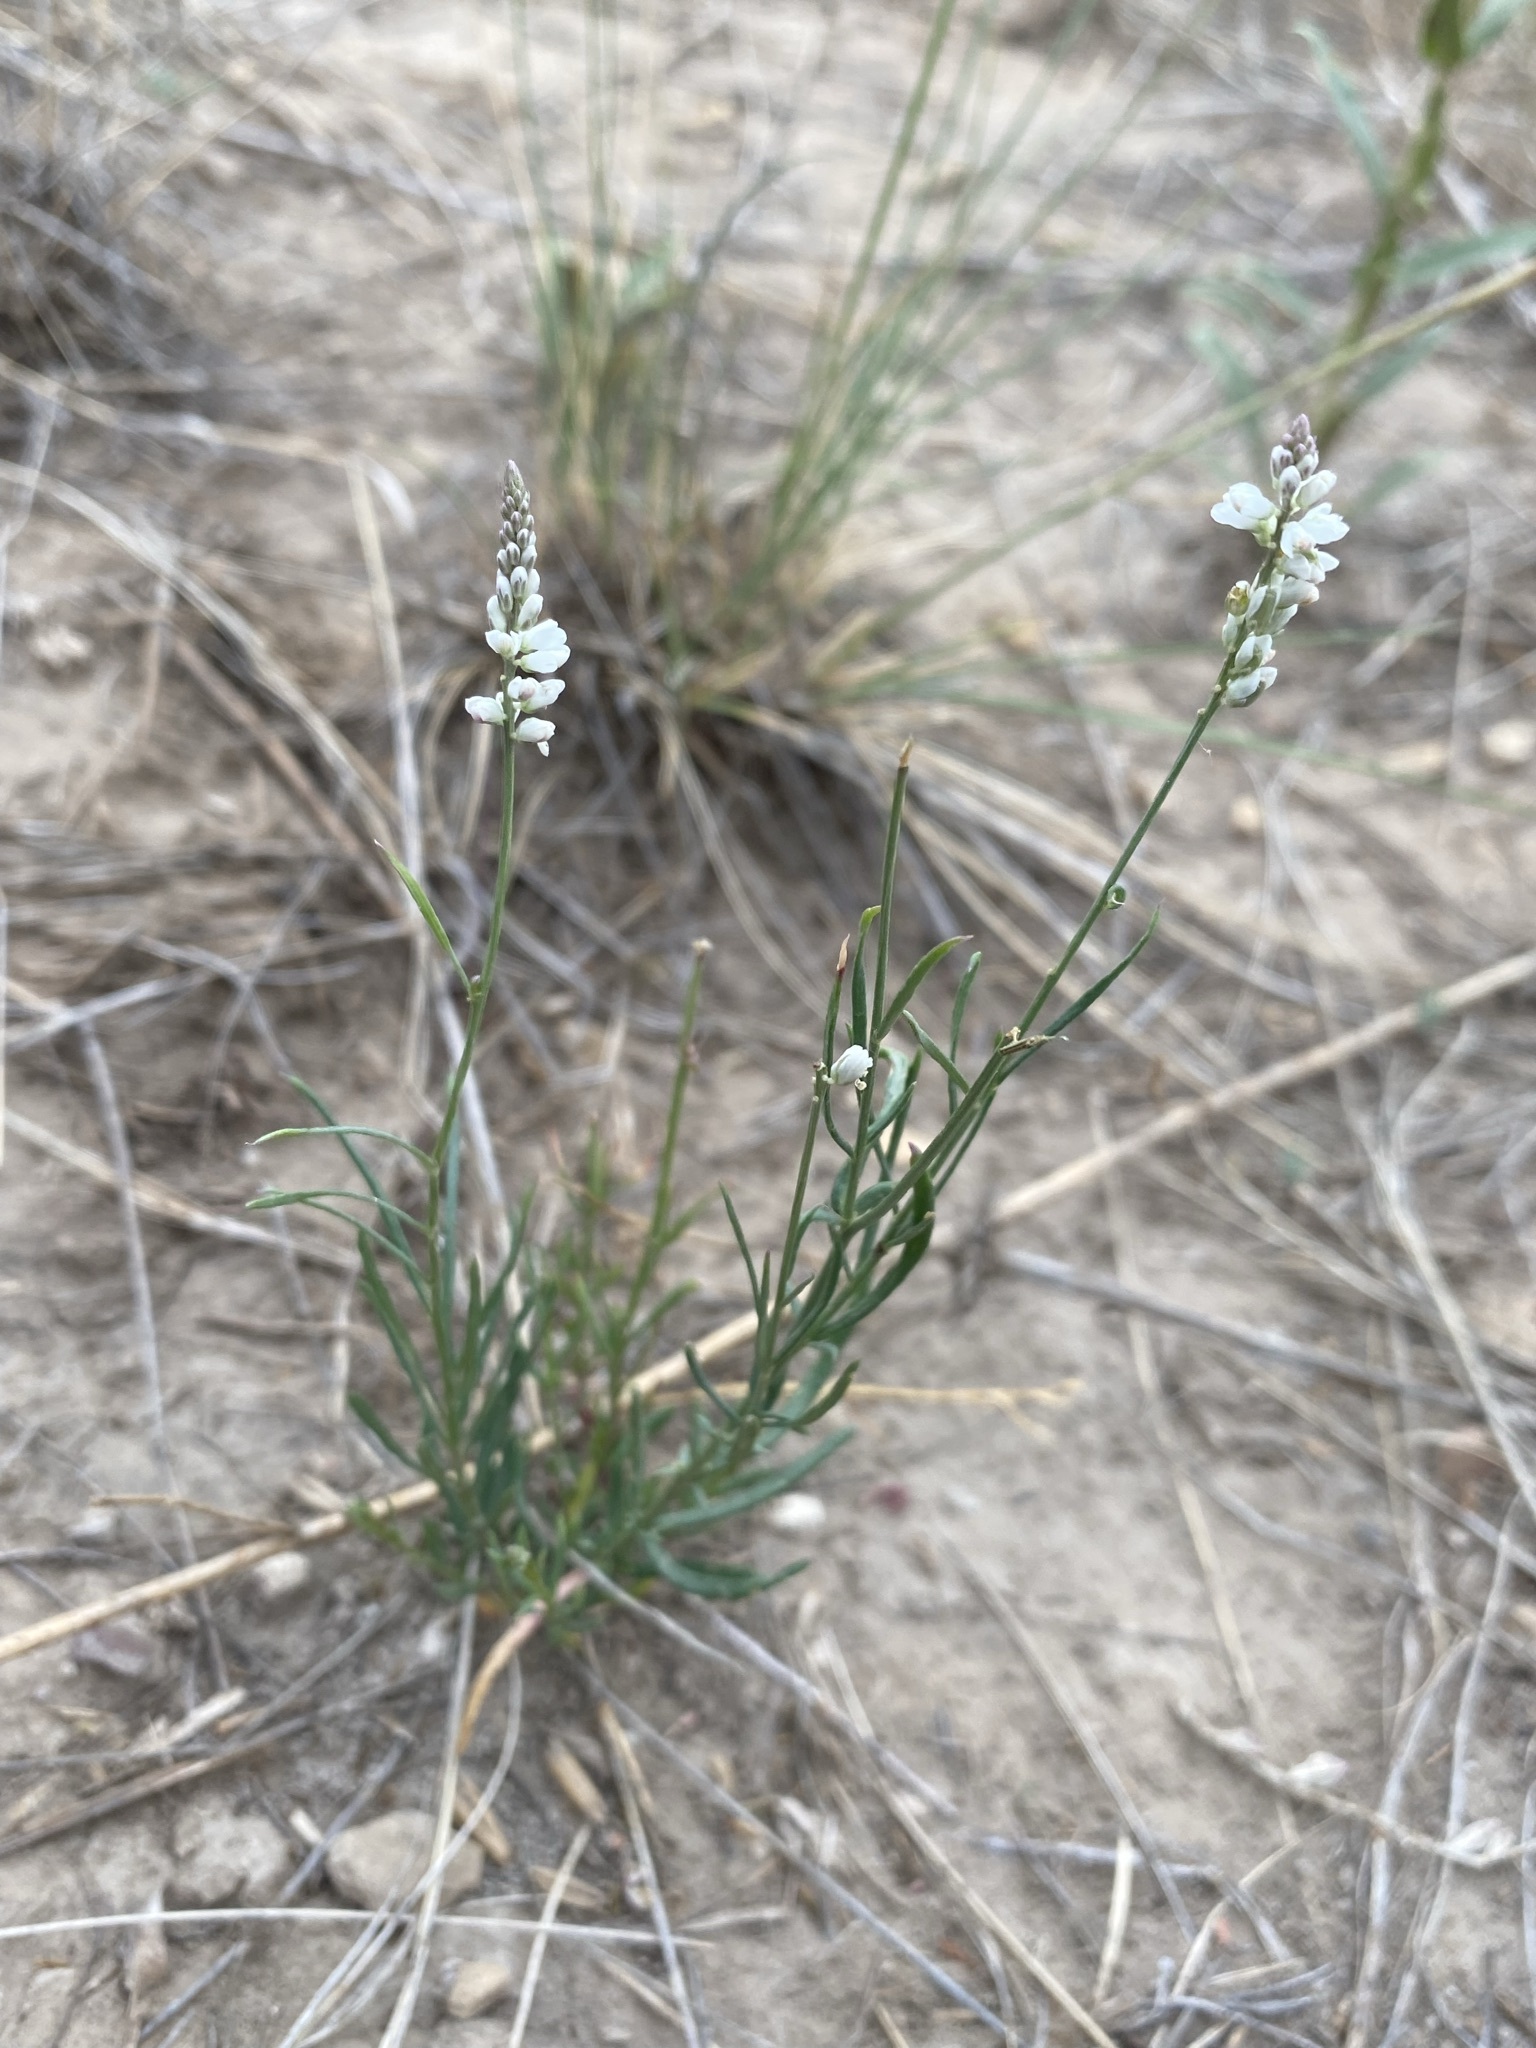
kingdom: Plantae
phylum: Tracheophyta
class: Magnoliopsida
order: Fabales
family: Polygalaceae
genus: Polygala
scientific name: Polygala alba
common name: White milkwort
